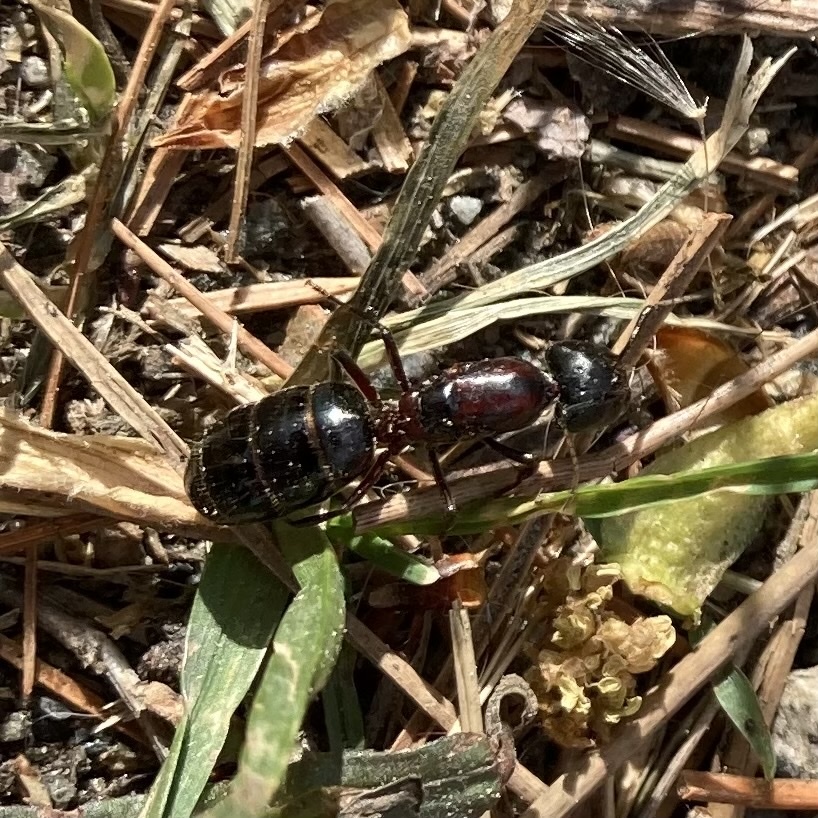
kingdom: Animalia
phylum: Arthropoda
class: Insecta
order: Hymenoptera
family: Formicidae
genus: Camponotus
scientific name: Camponotus novaeboracensis
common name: New york carpenter ant
